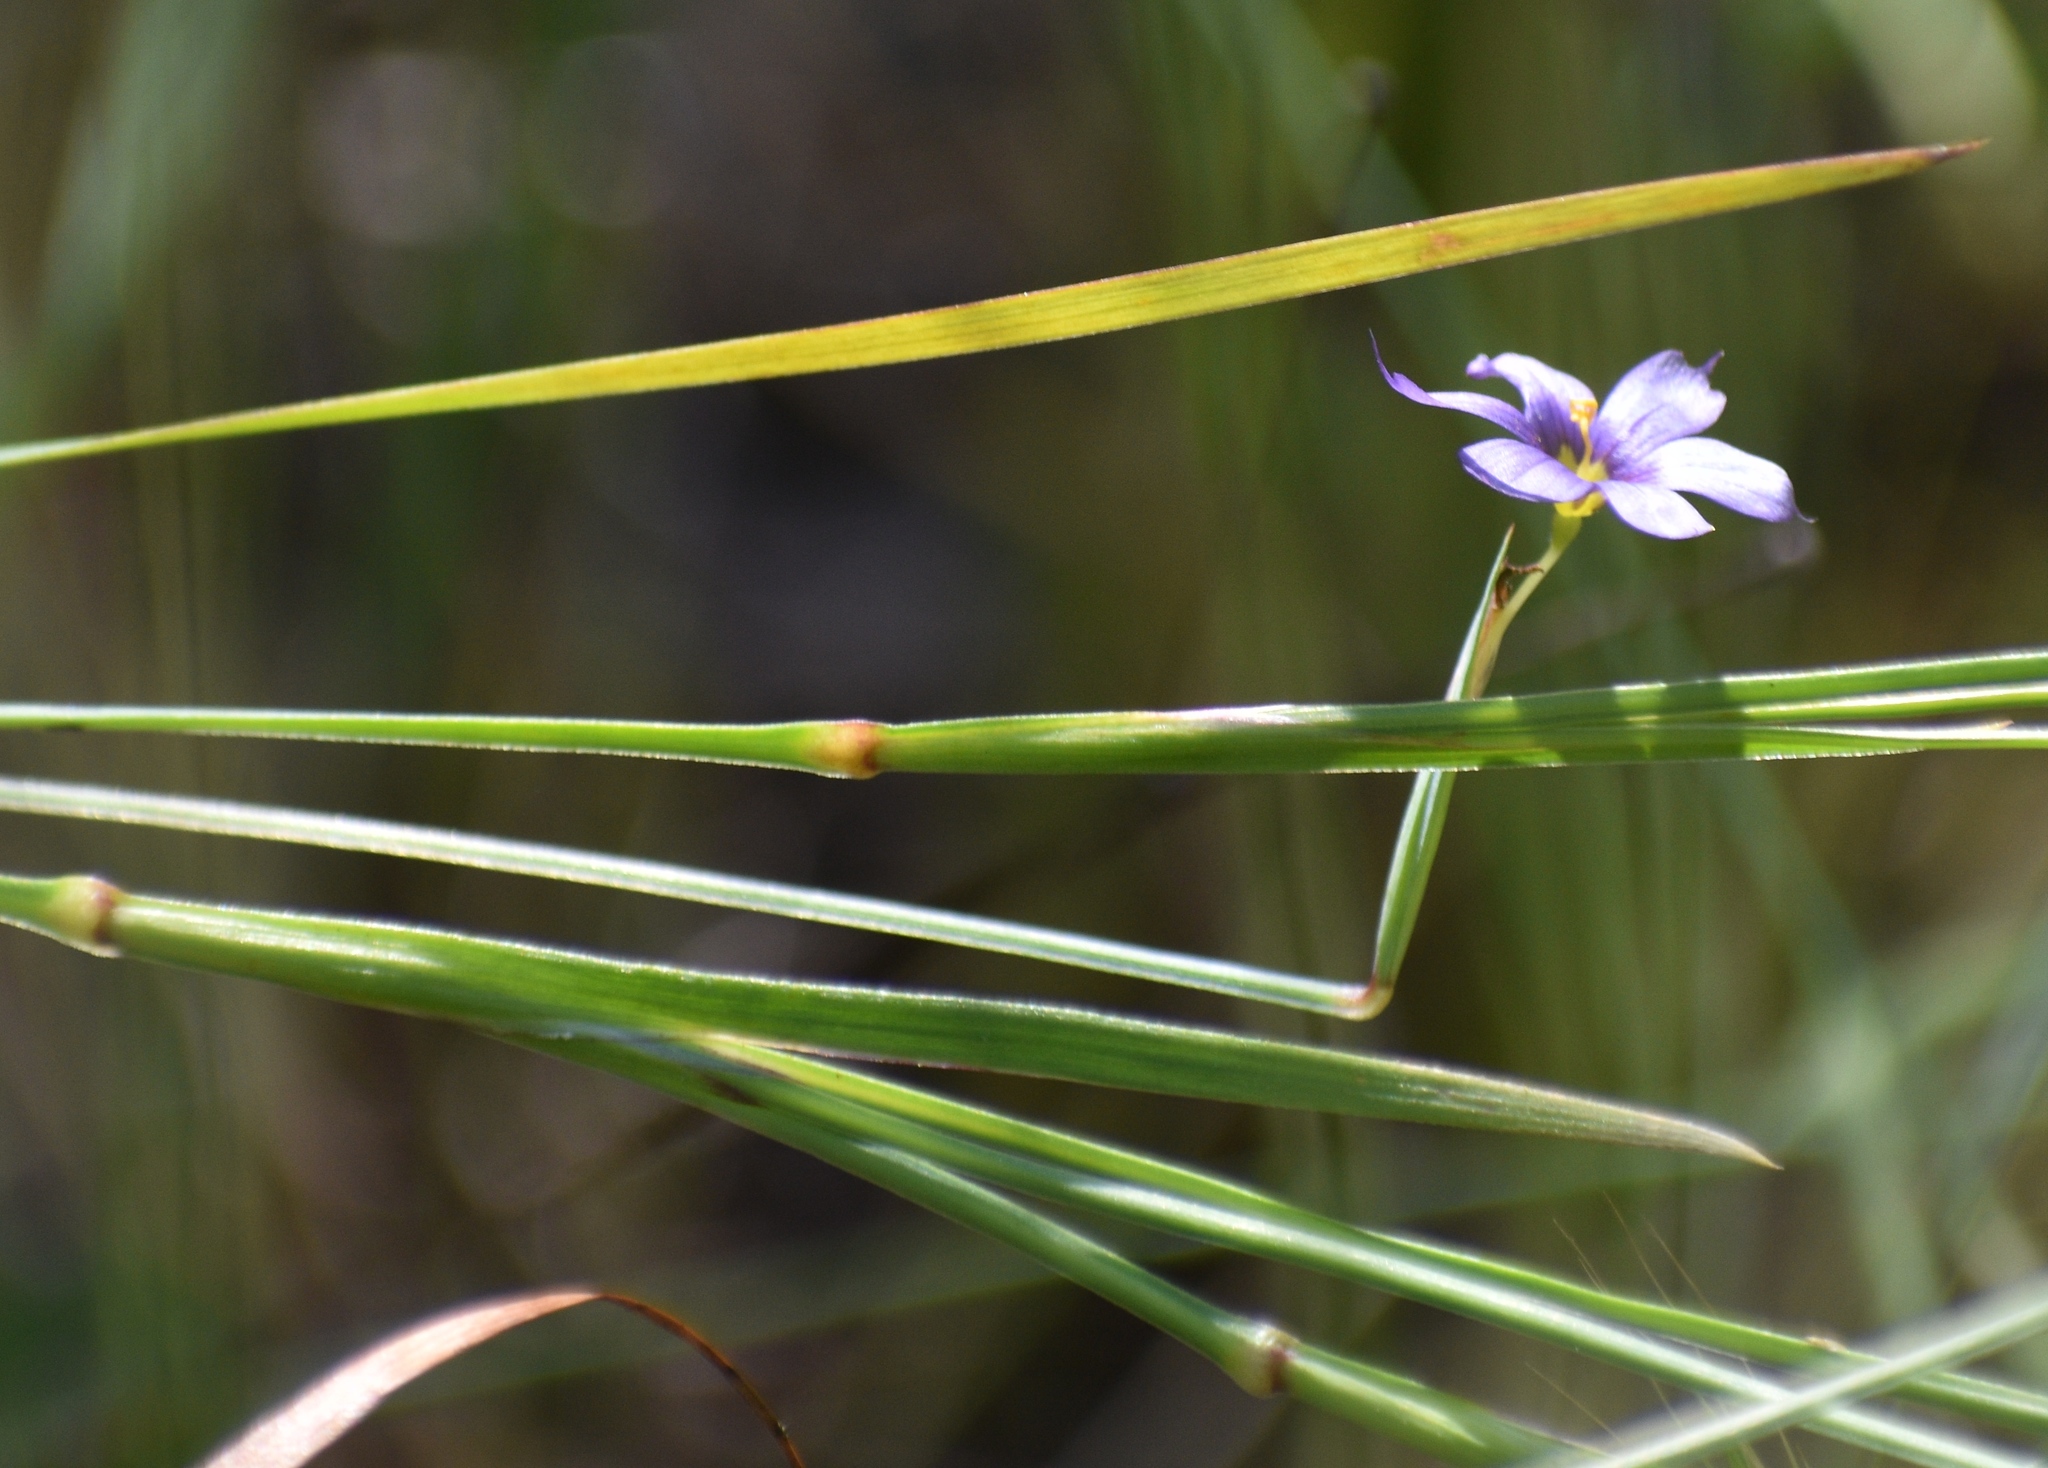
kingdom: Plantae
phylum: Tracheophyta
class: Liliopsida
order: Asparagales
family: Iridaceae
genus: Sisyrinchium
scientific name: Sisyrinchium bellum
